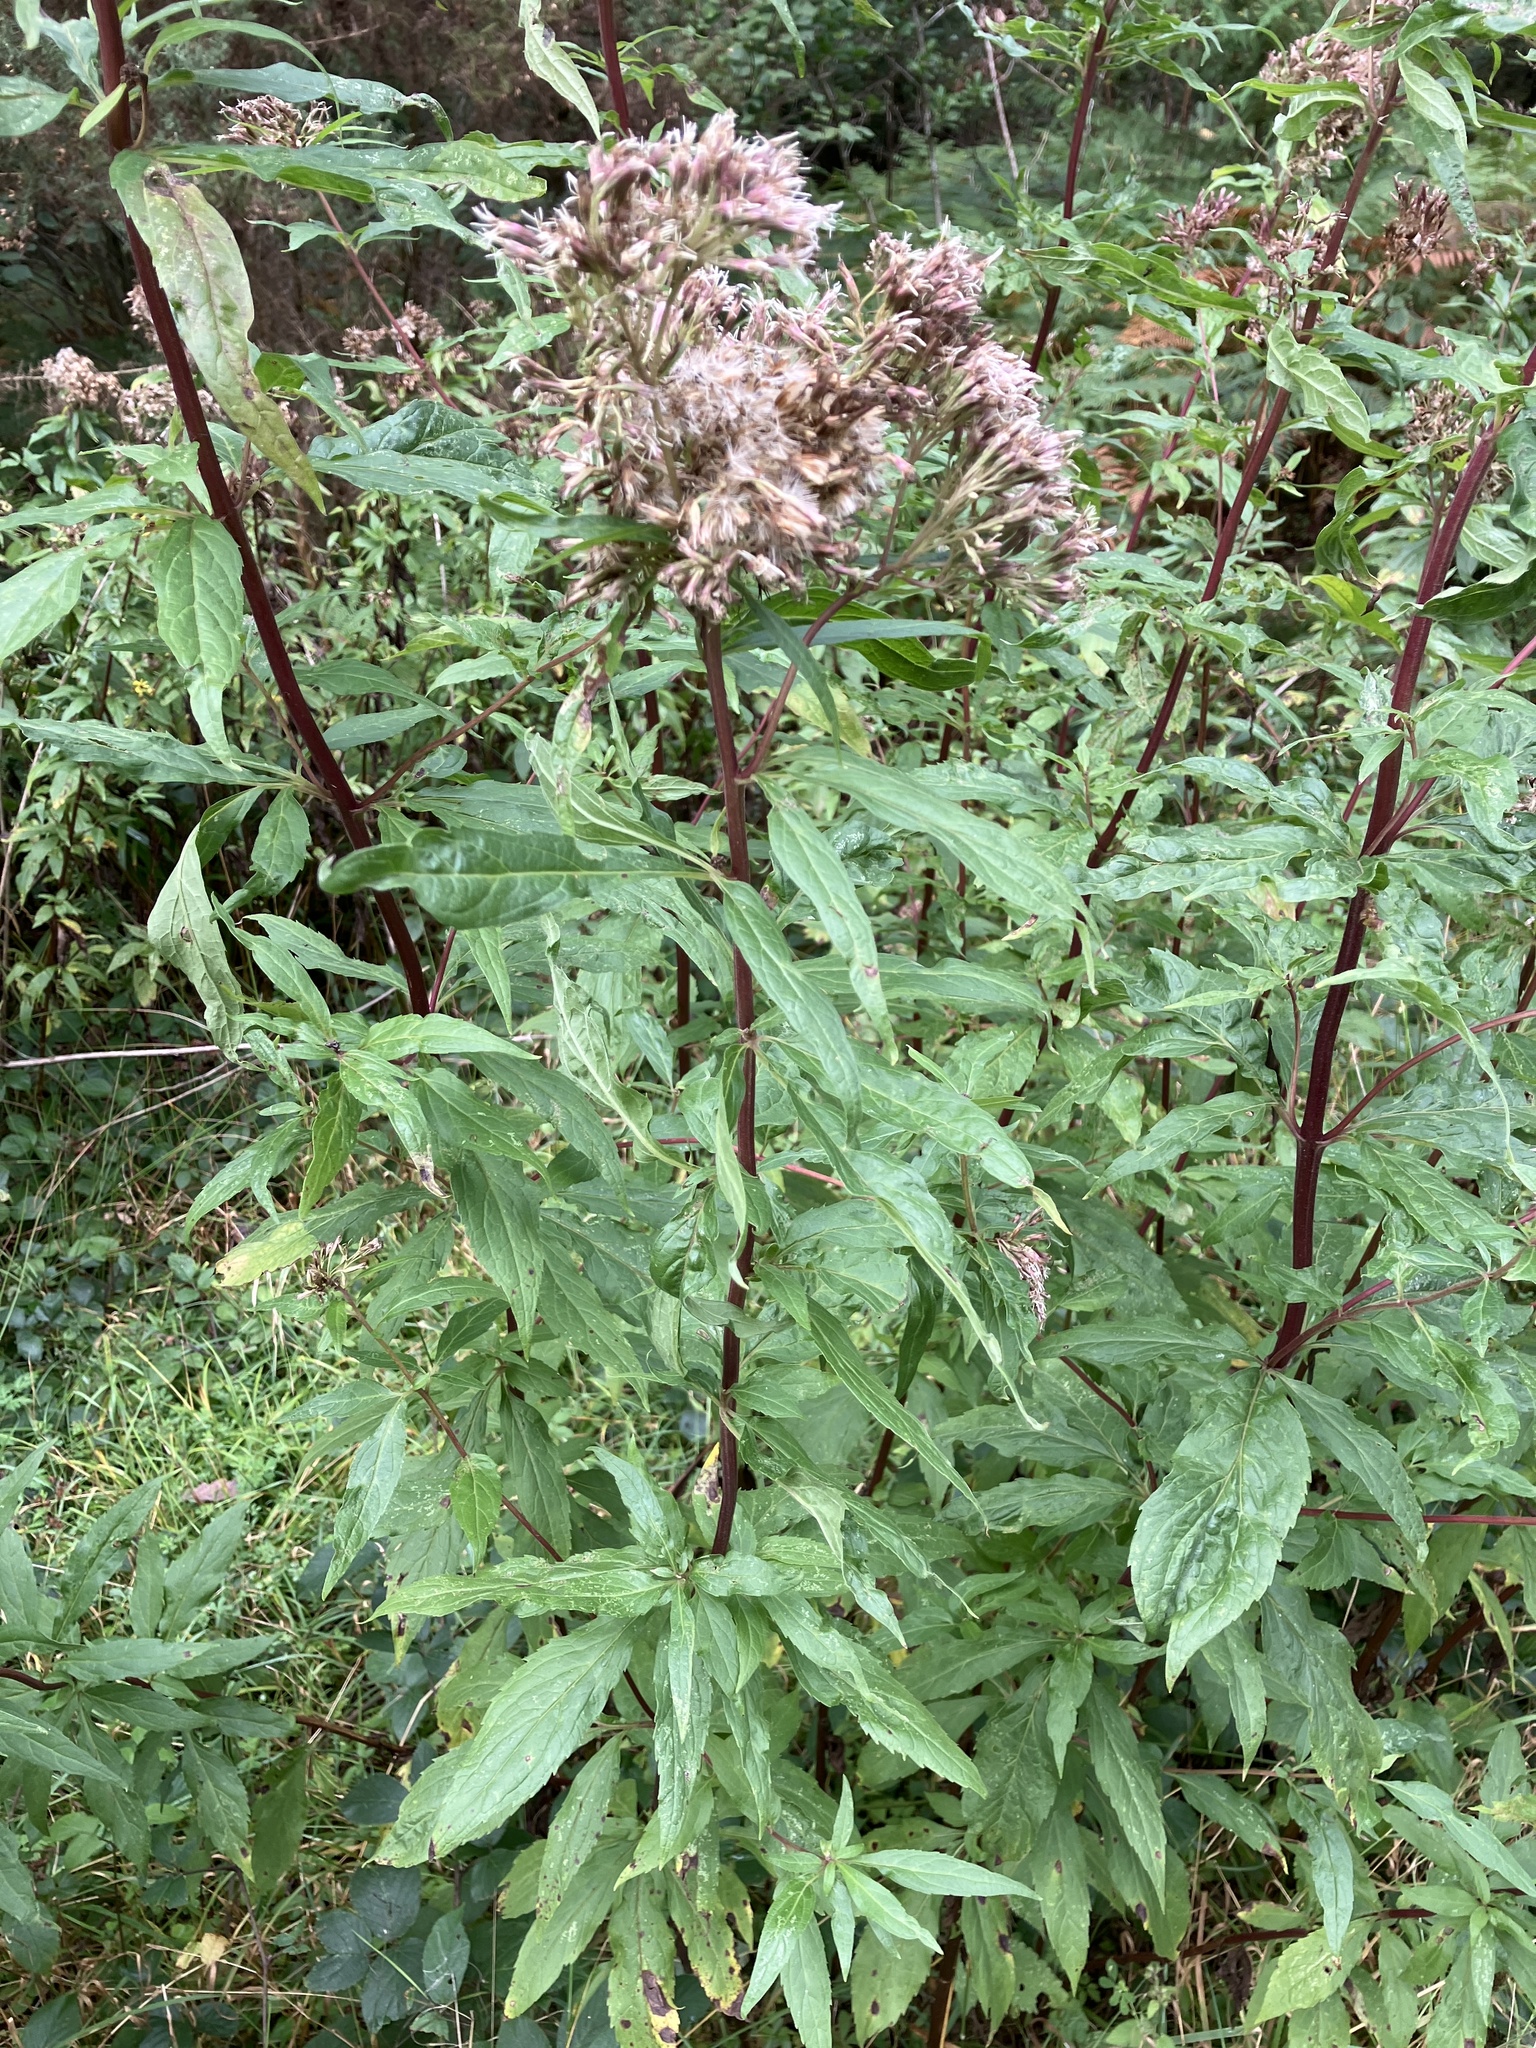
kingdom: Plantae
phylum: Tracheophyta
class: Magnoliopsida
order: Asterales
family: Asteraceae
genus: Eupatorium
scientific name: Eupatorium cannabinum
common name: Hemp-agrimony
